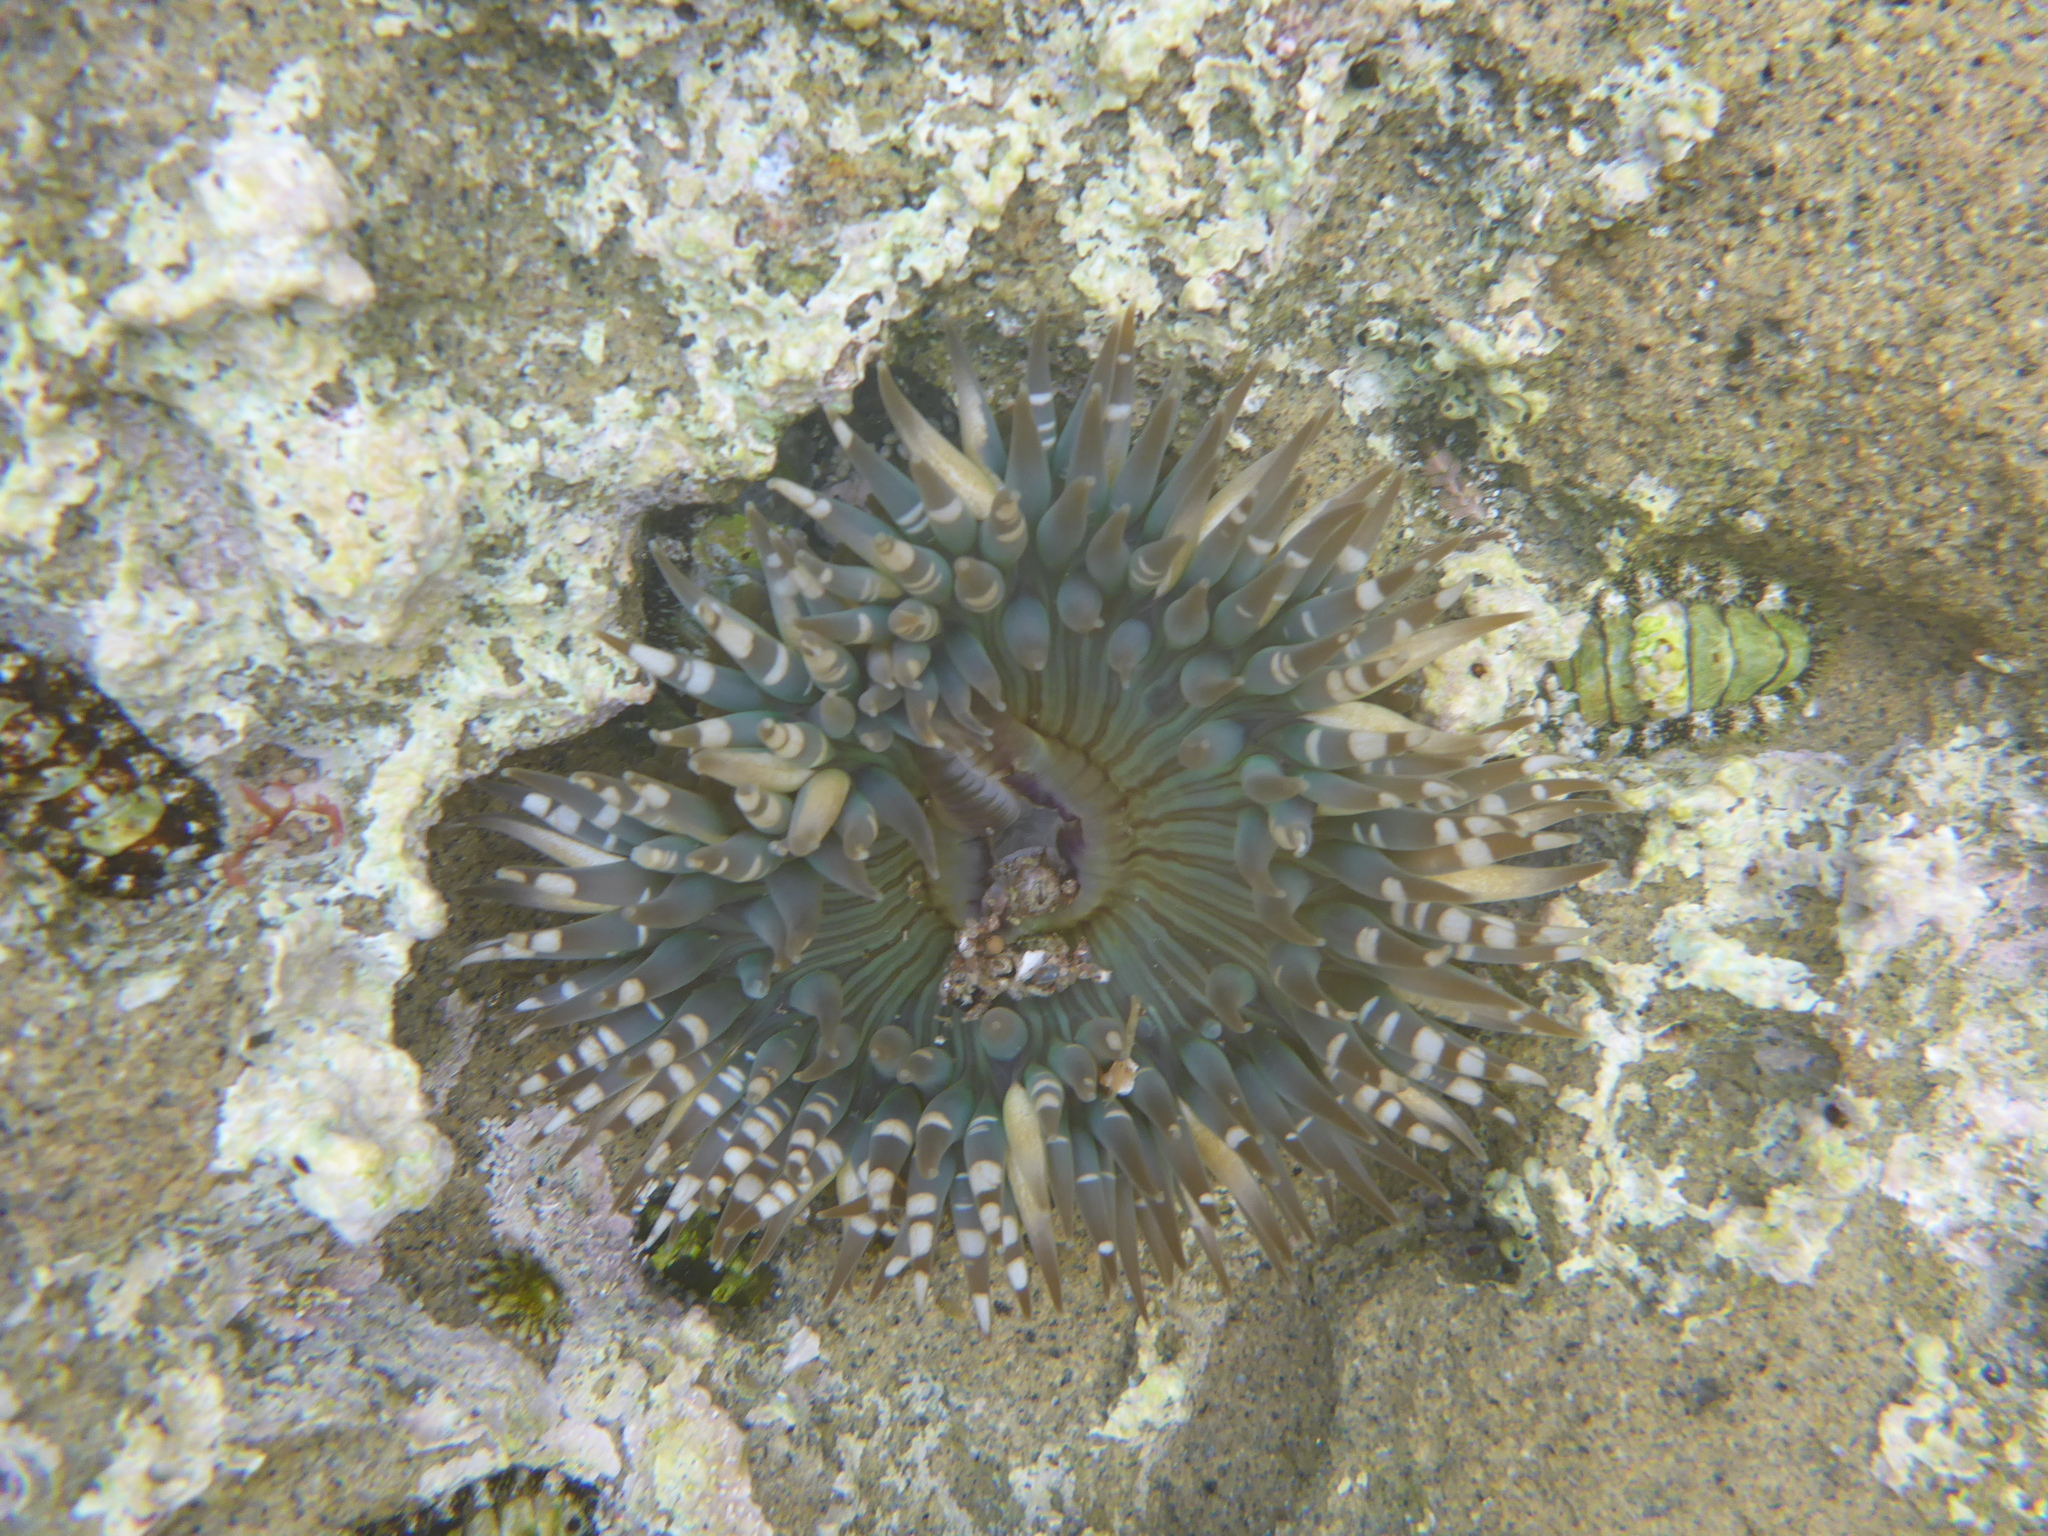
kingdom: Animalia
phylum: Cnidaria
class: Anthozoa
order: Actiniaria
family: Actiniidae
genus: Anthopleura
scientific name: Anthopleura sola
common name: Sun anemone
